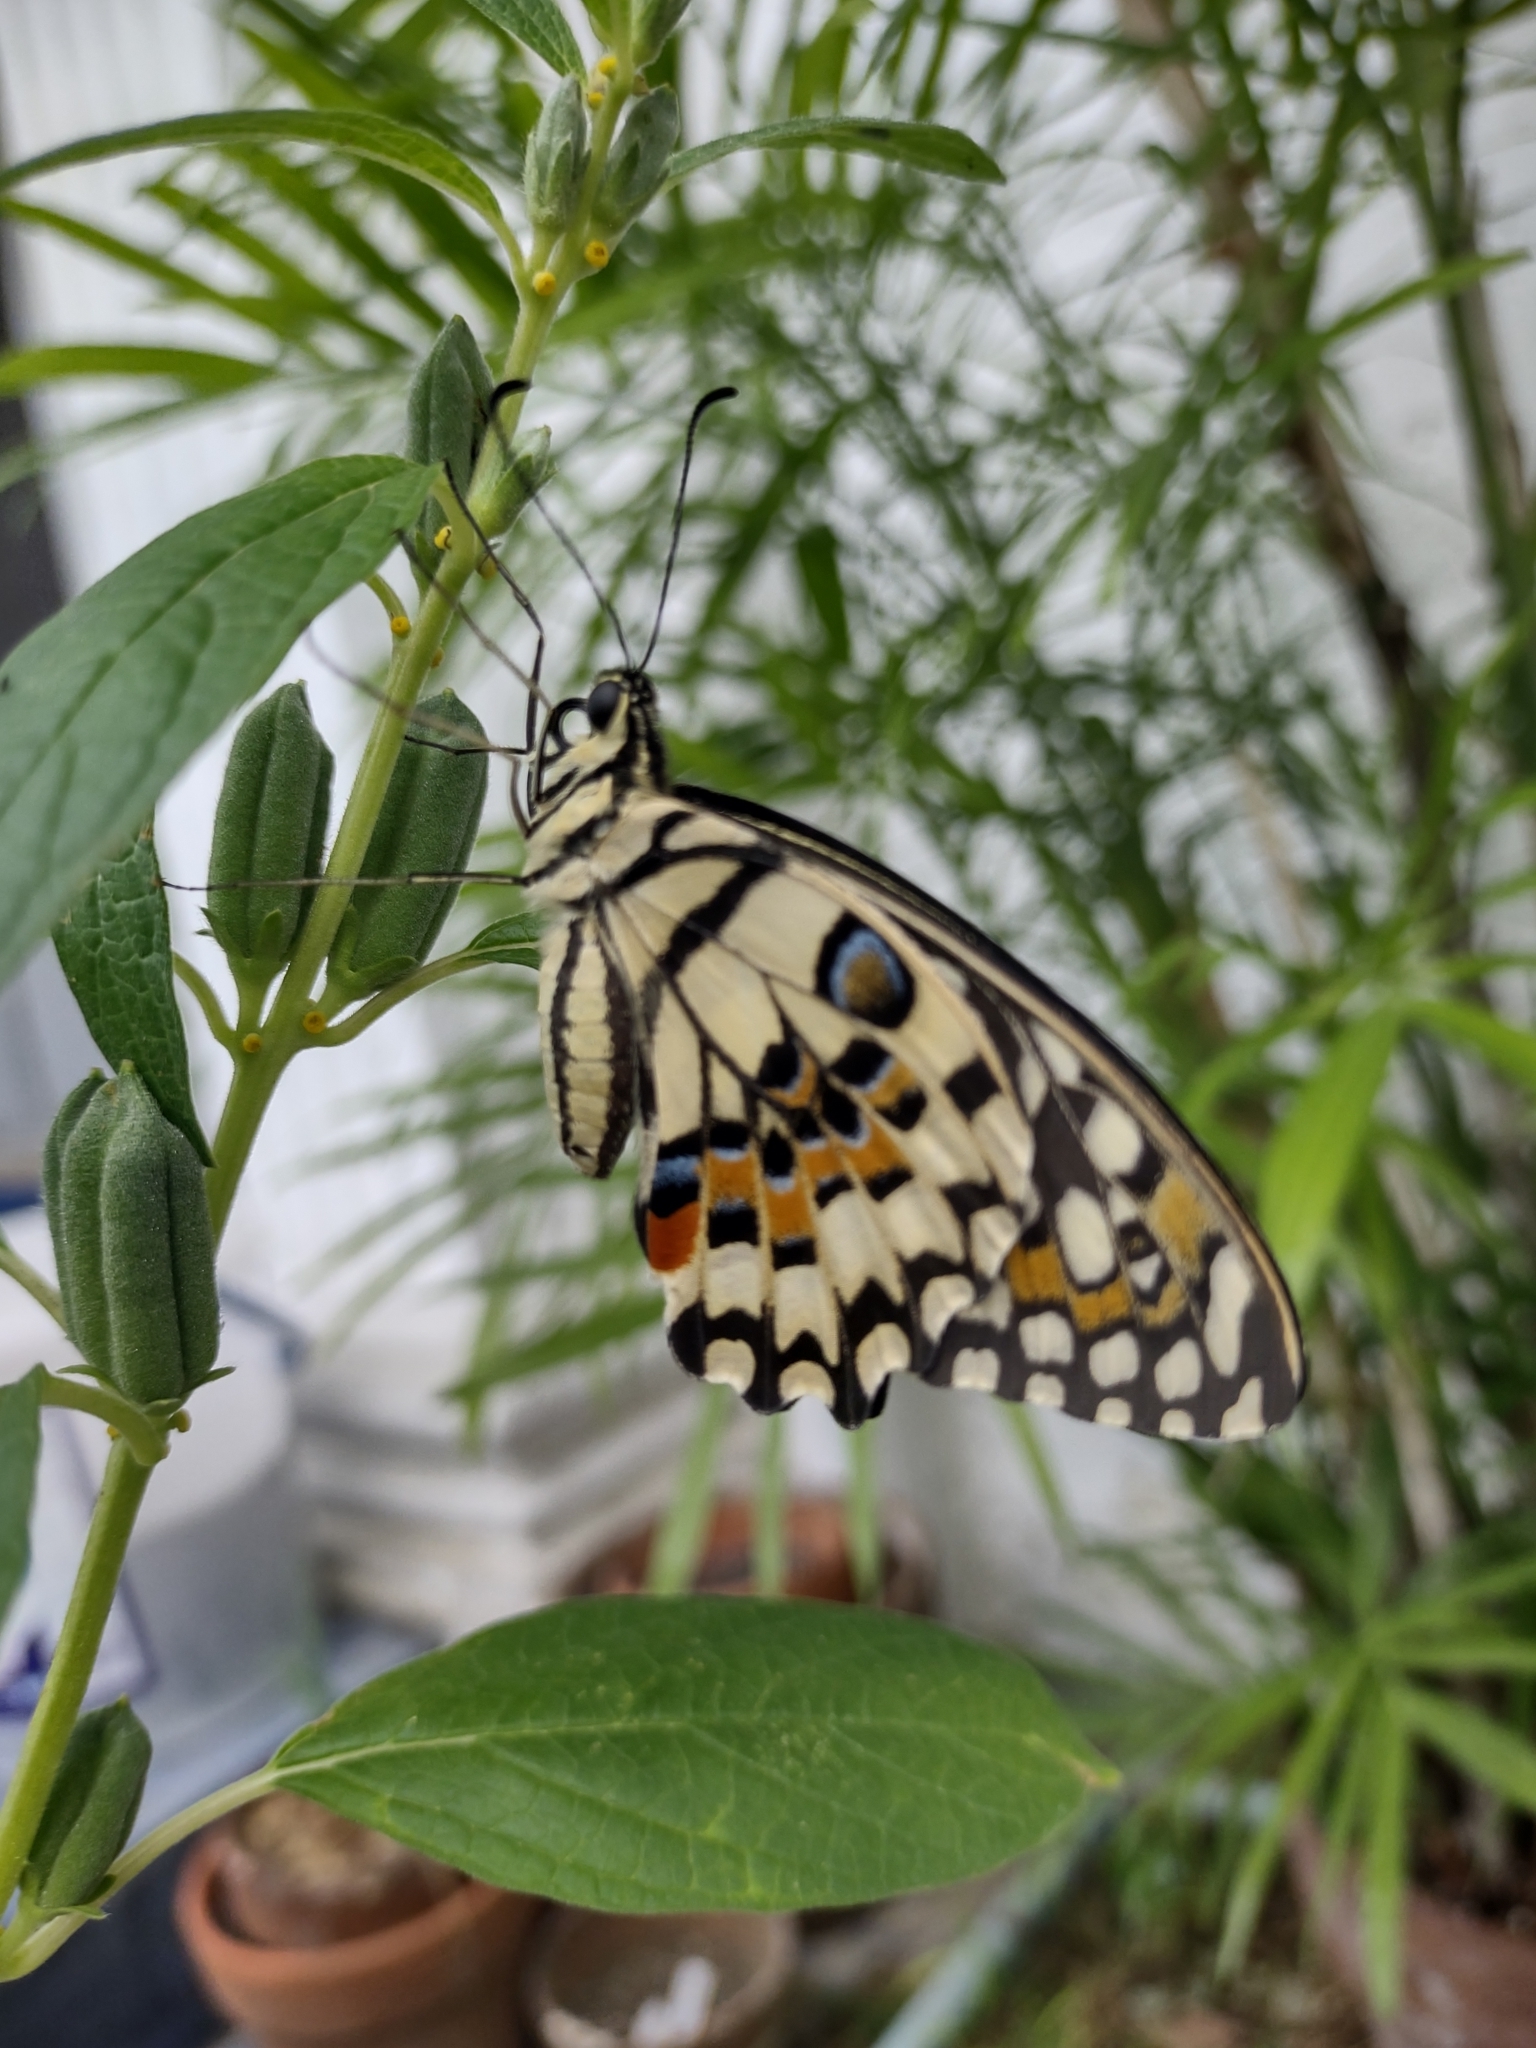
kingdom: Animalia
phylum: Arthropoda
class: Insecta
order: Lepidoptera
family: Papilionidae
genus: Papilio
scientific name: Papilio demoleus
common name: Lime butterfly
